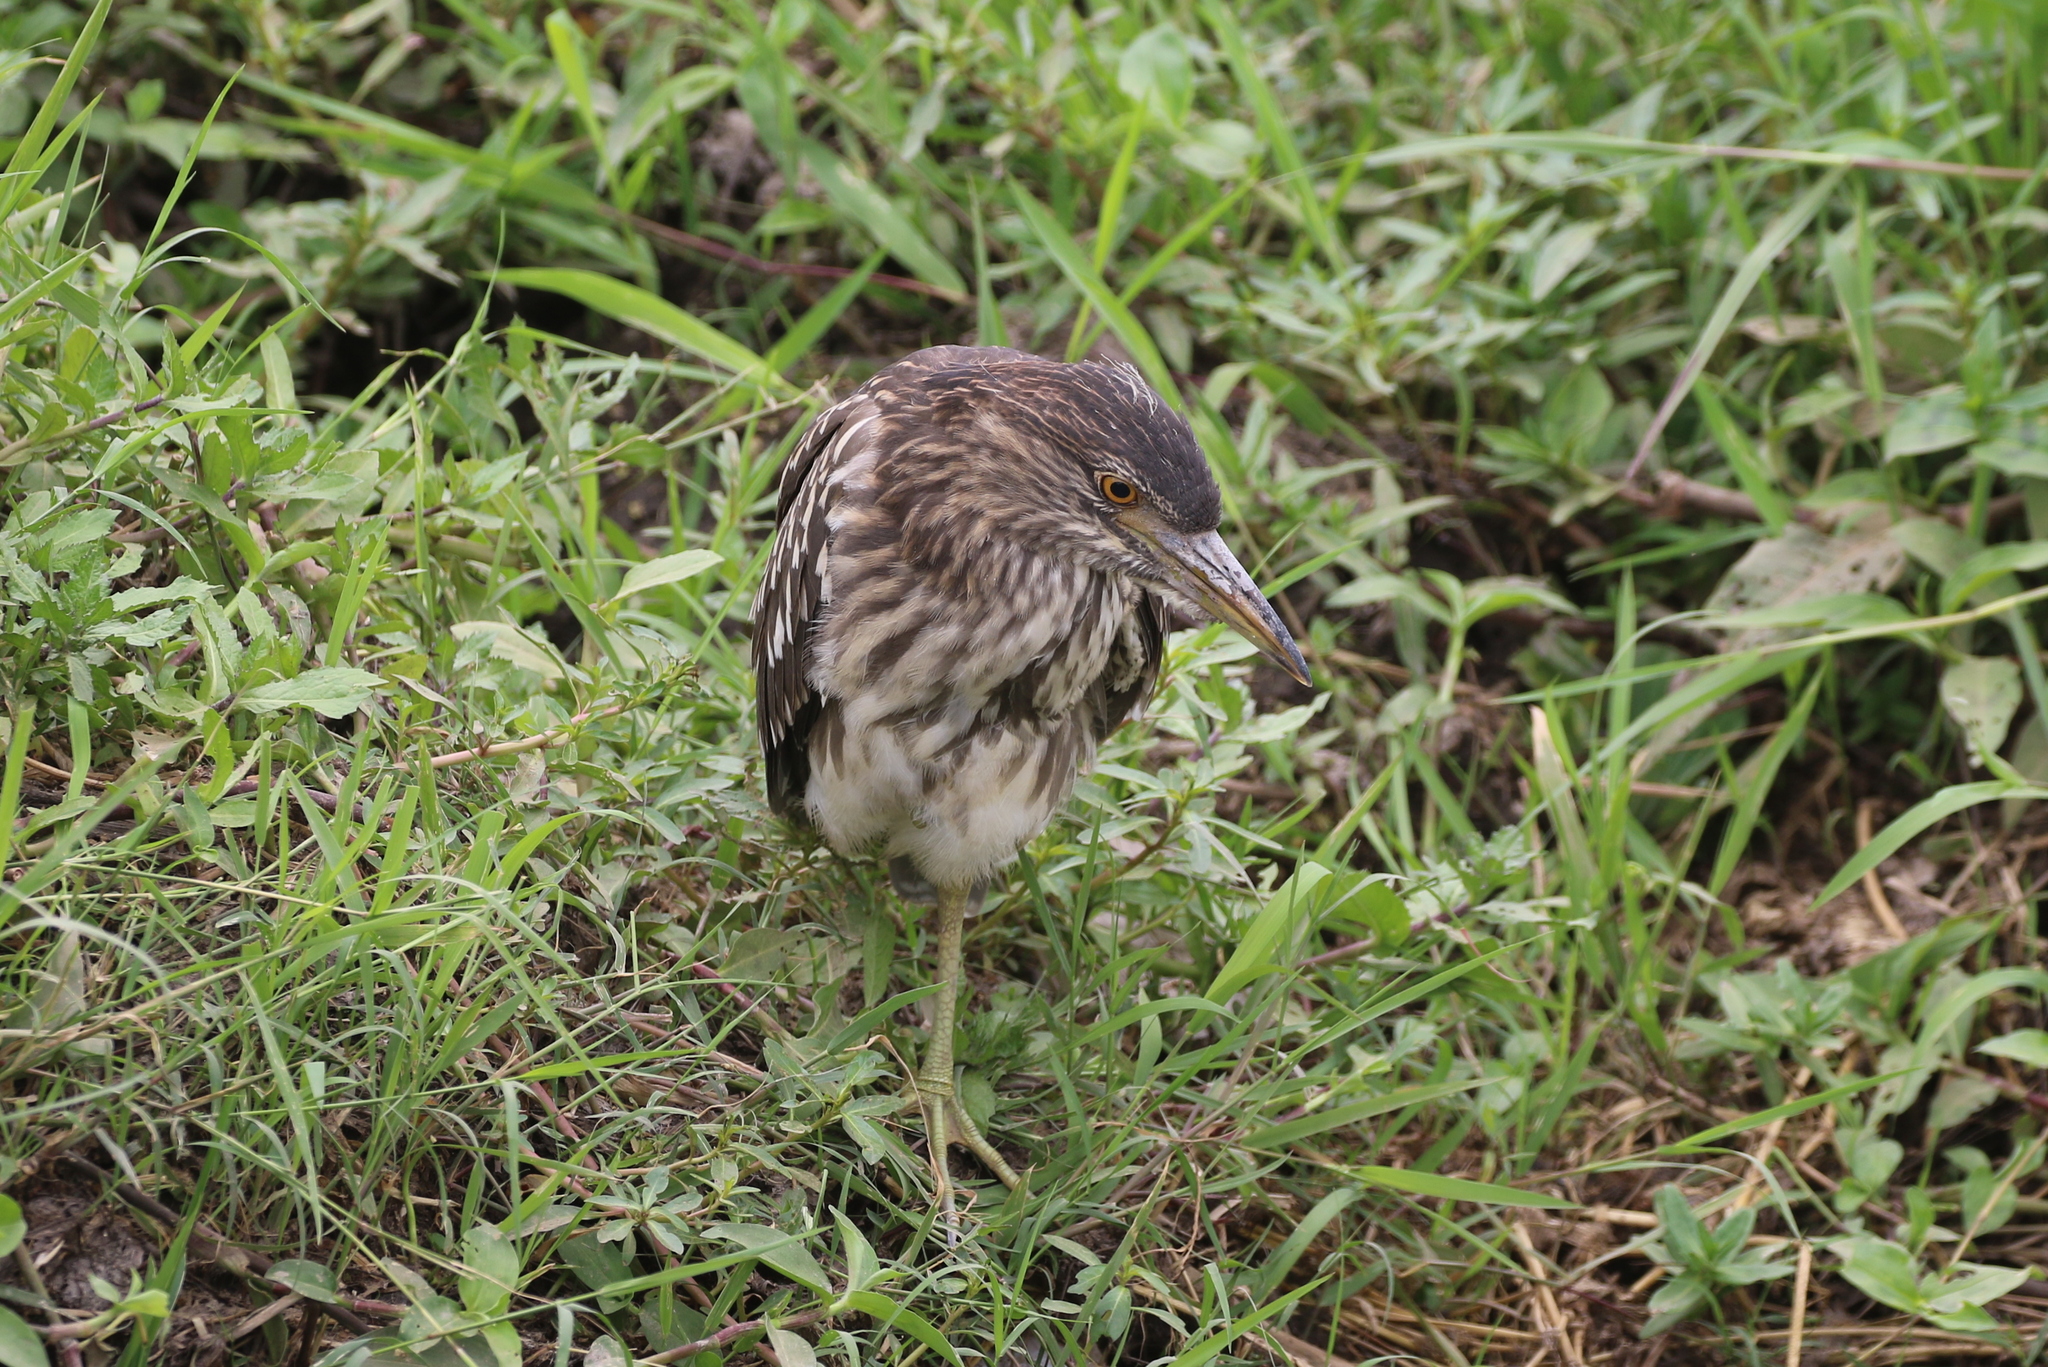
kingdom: Animalia
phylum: Chordata
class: Aves
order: Pelecaniformes
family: Ardeidae
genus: Nycticorax
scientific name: Nycticorax nycticorax
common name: Black-crowned night heron
